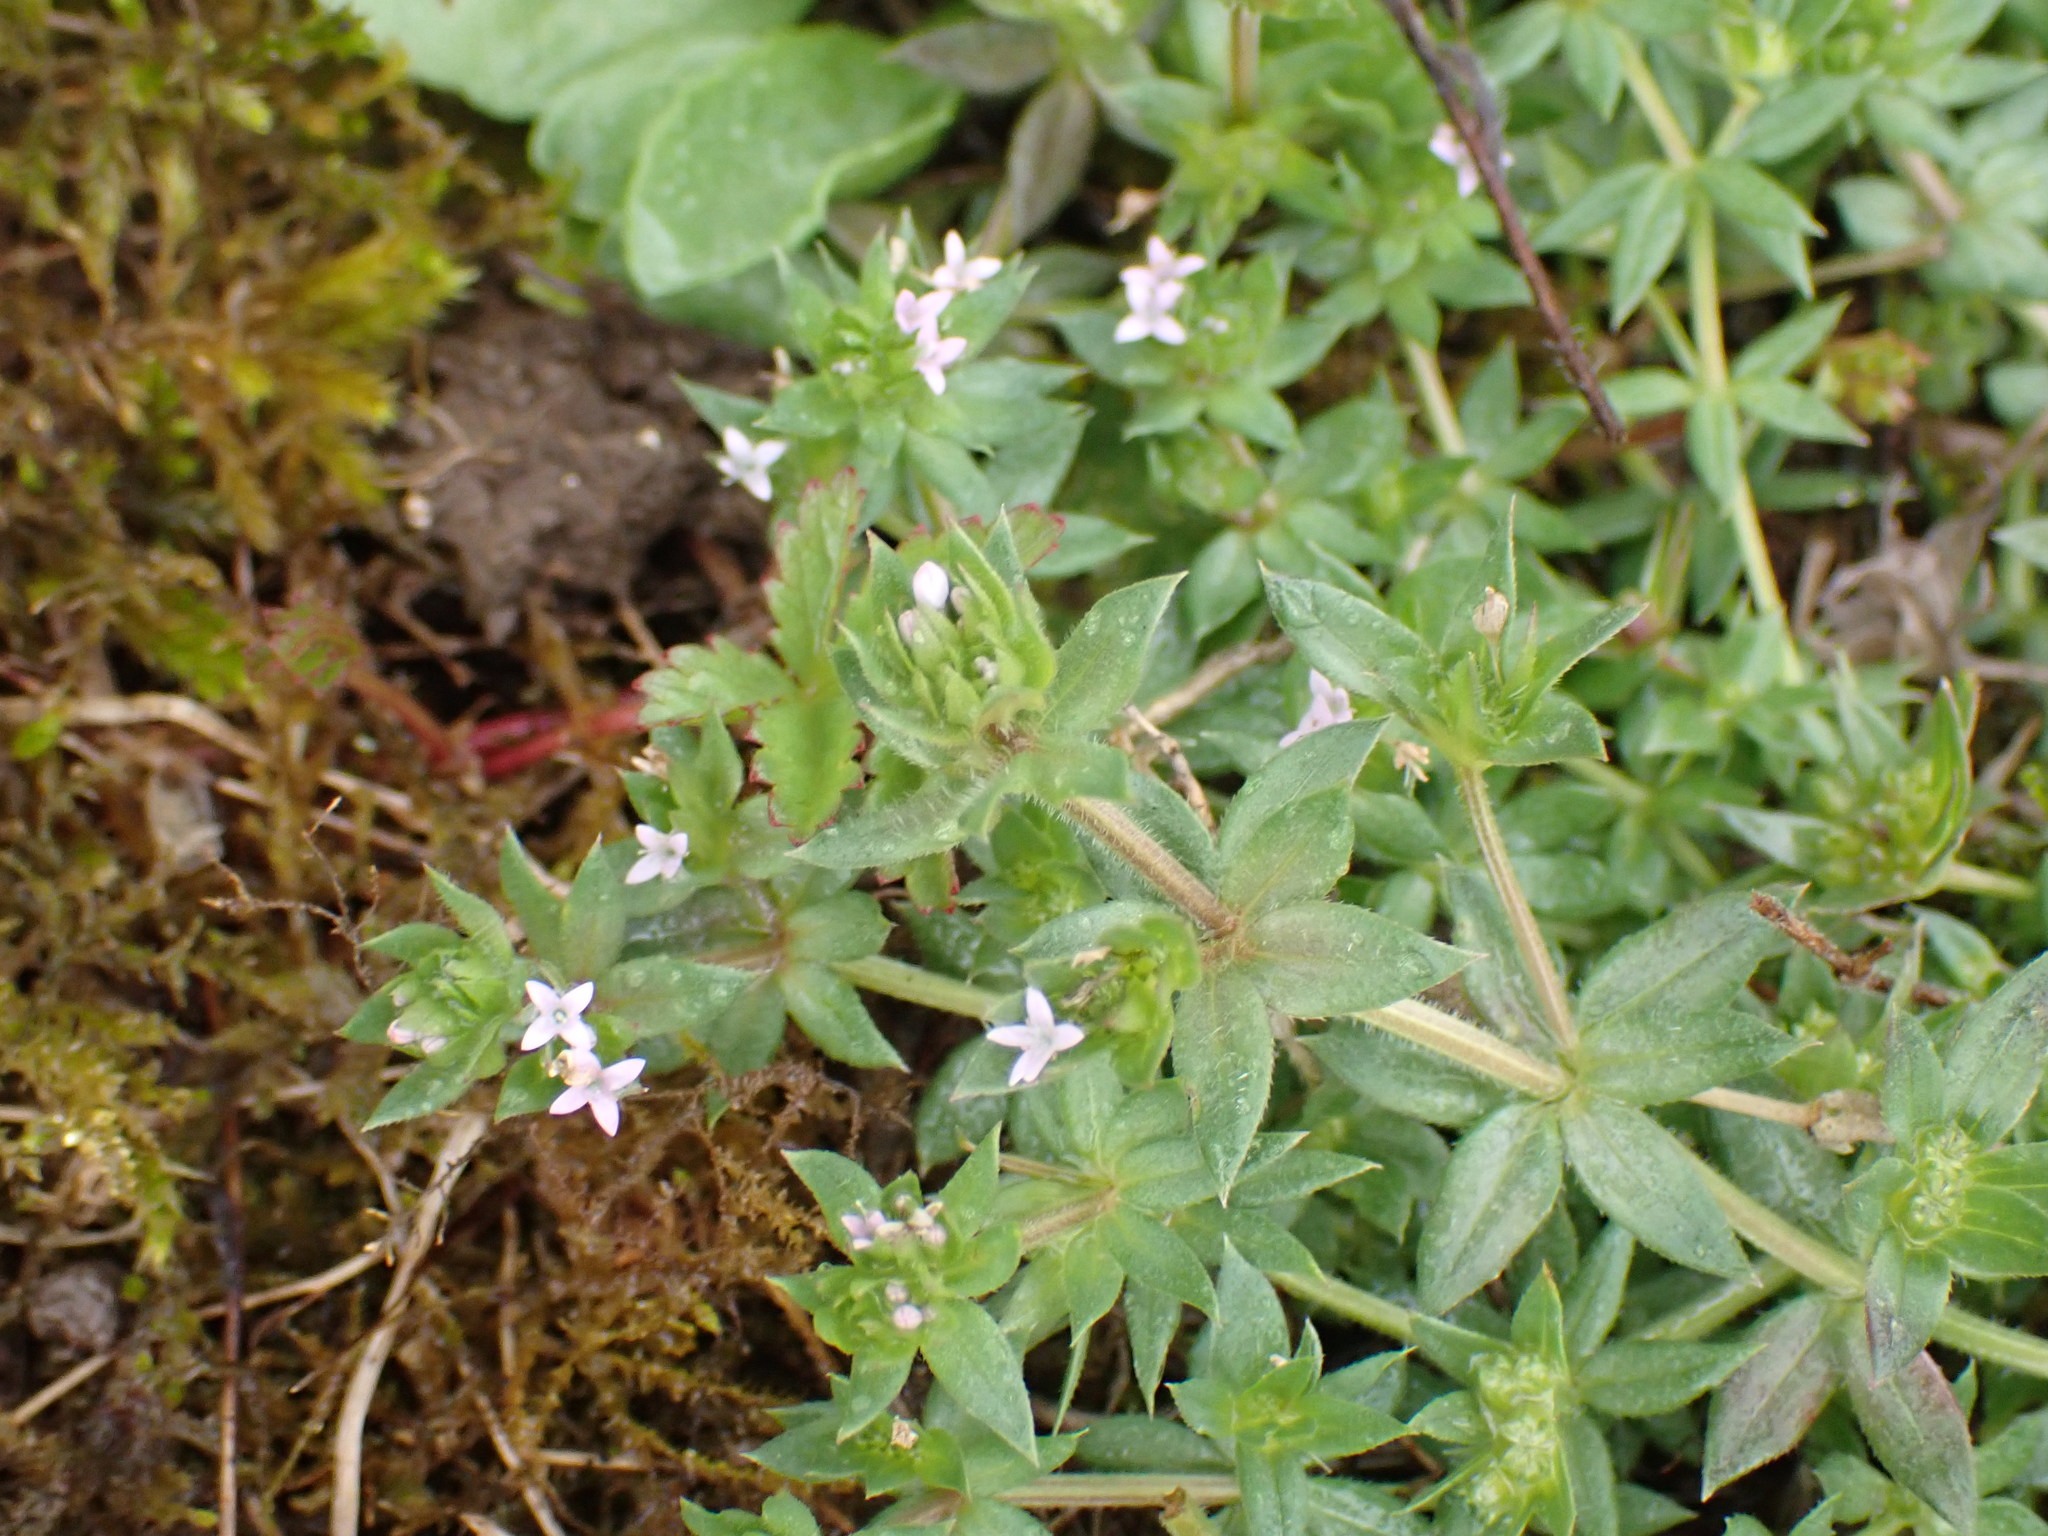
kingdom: Plantae
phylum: Tracheophyta
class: Magnoliopsida
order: Gentianales
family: Rubiaceae
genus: Sherardia
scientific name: Sherardia arvensis
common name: Field madder
